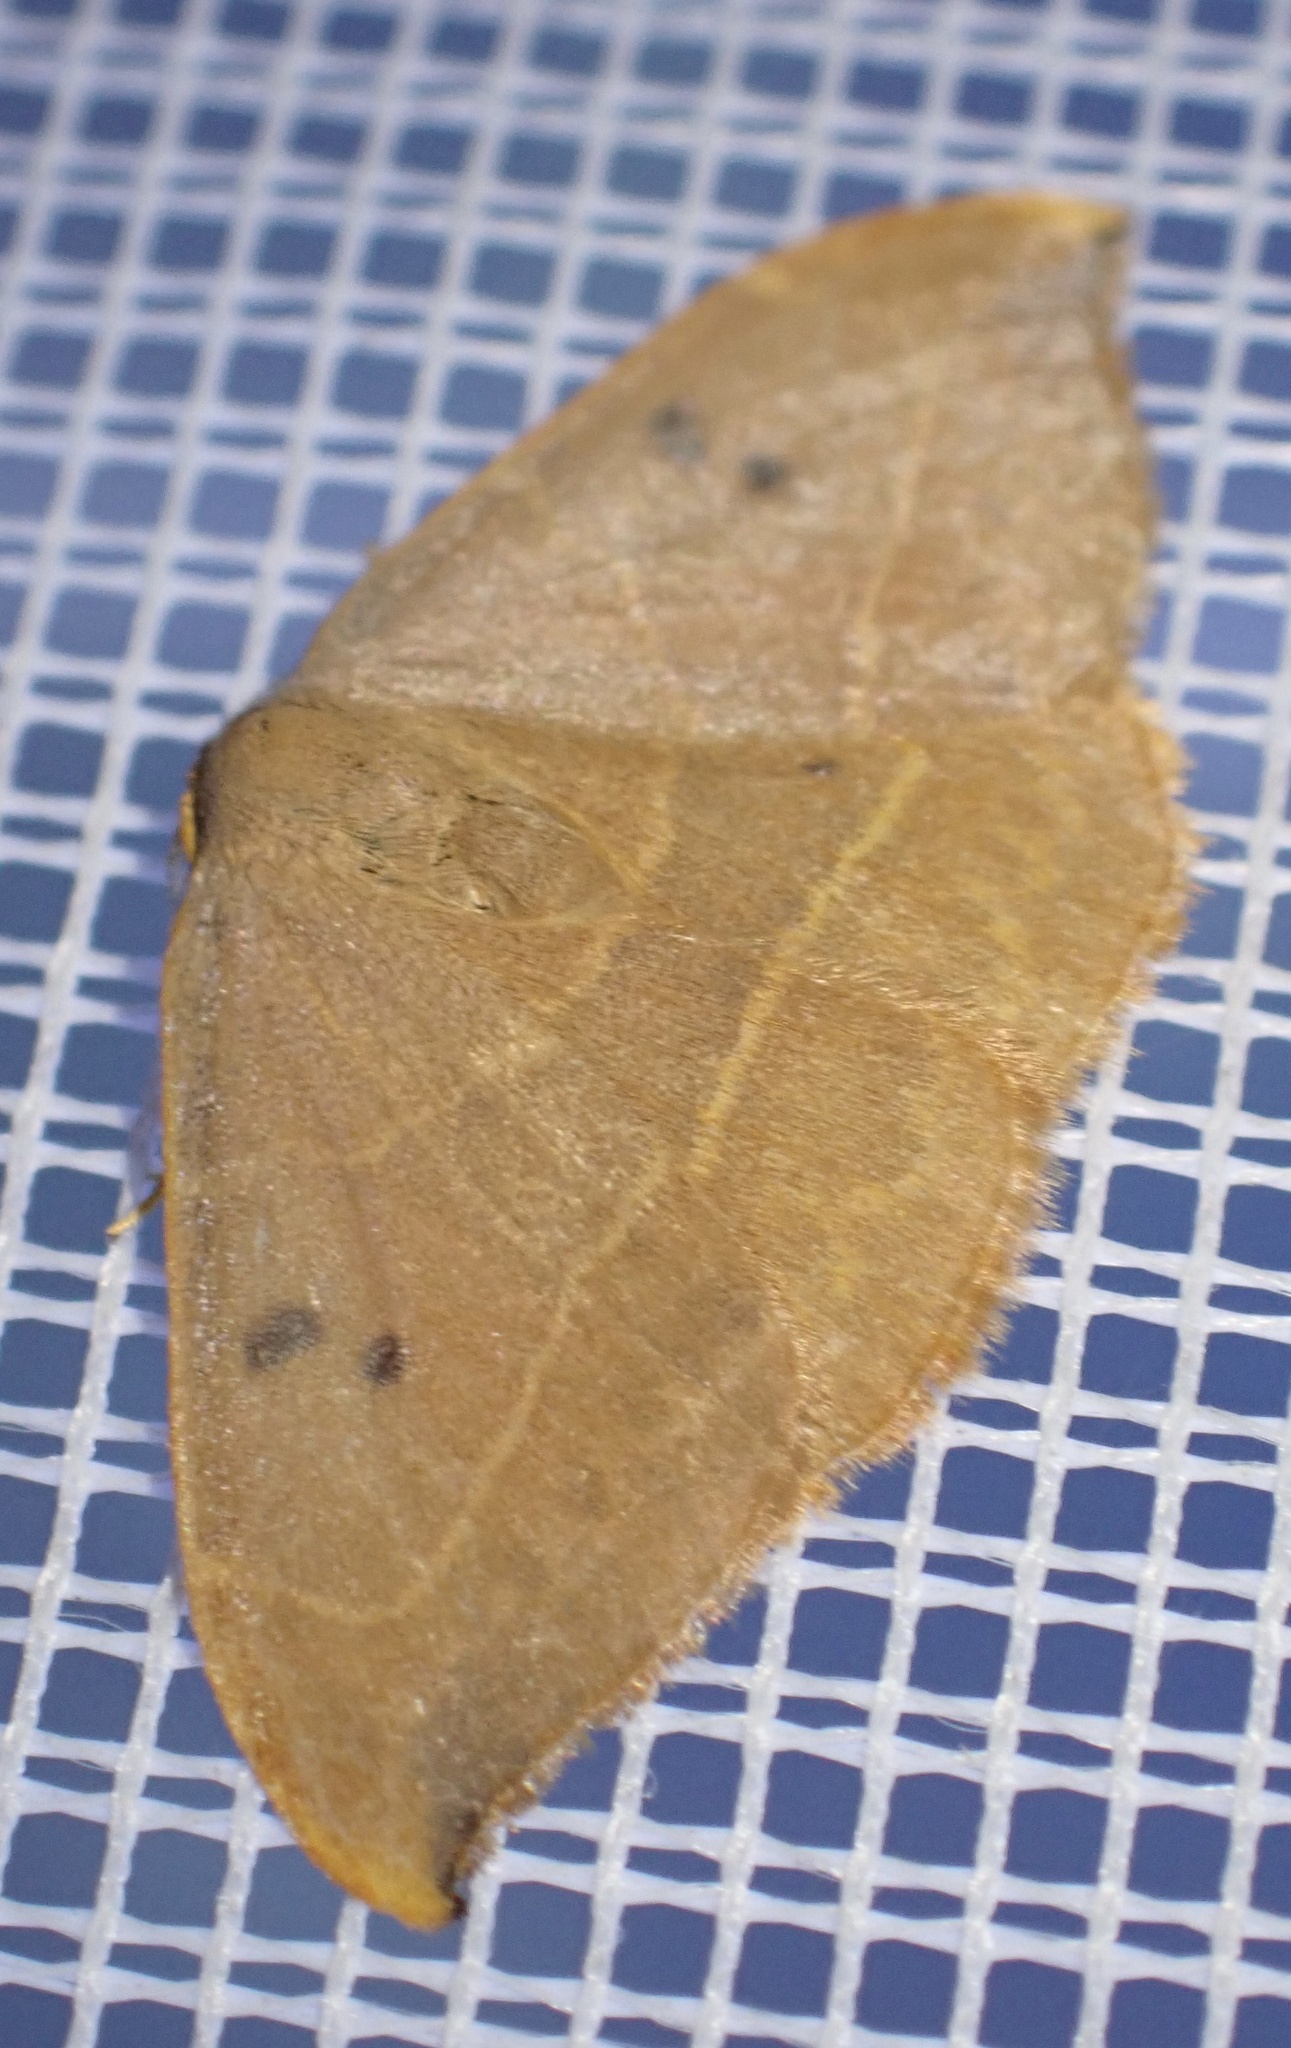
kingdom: Animalia
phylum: Arthropoda
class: Insecta
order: Lepidoptera
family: Drepanidae
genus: Watsonalla
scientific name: Watsonalla binaria
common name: Oak hook-tip
